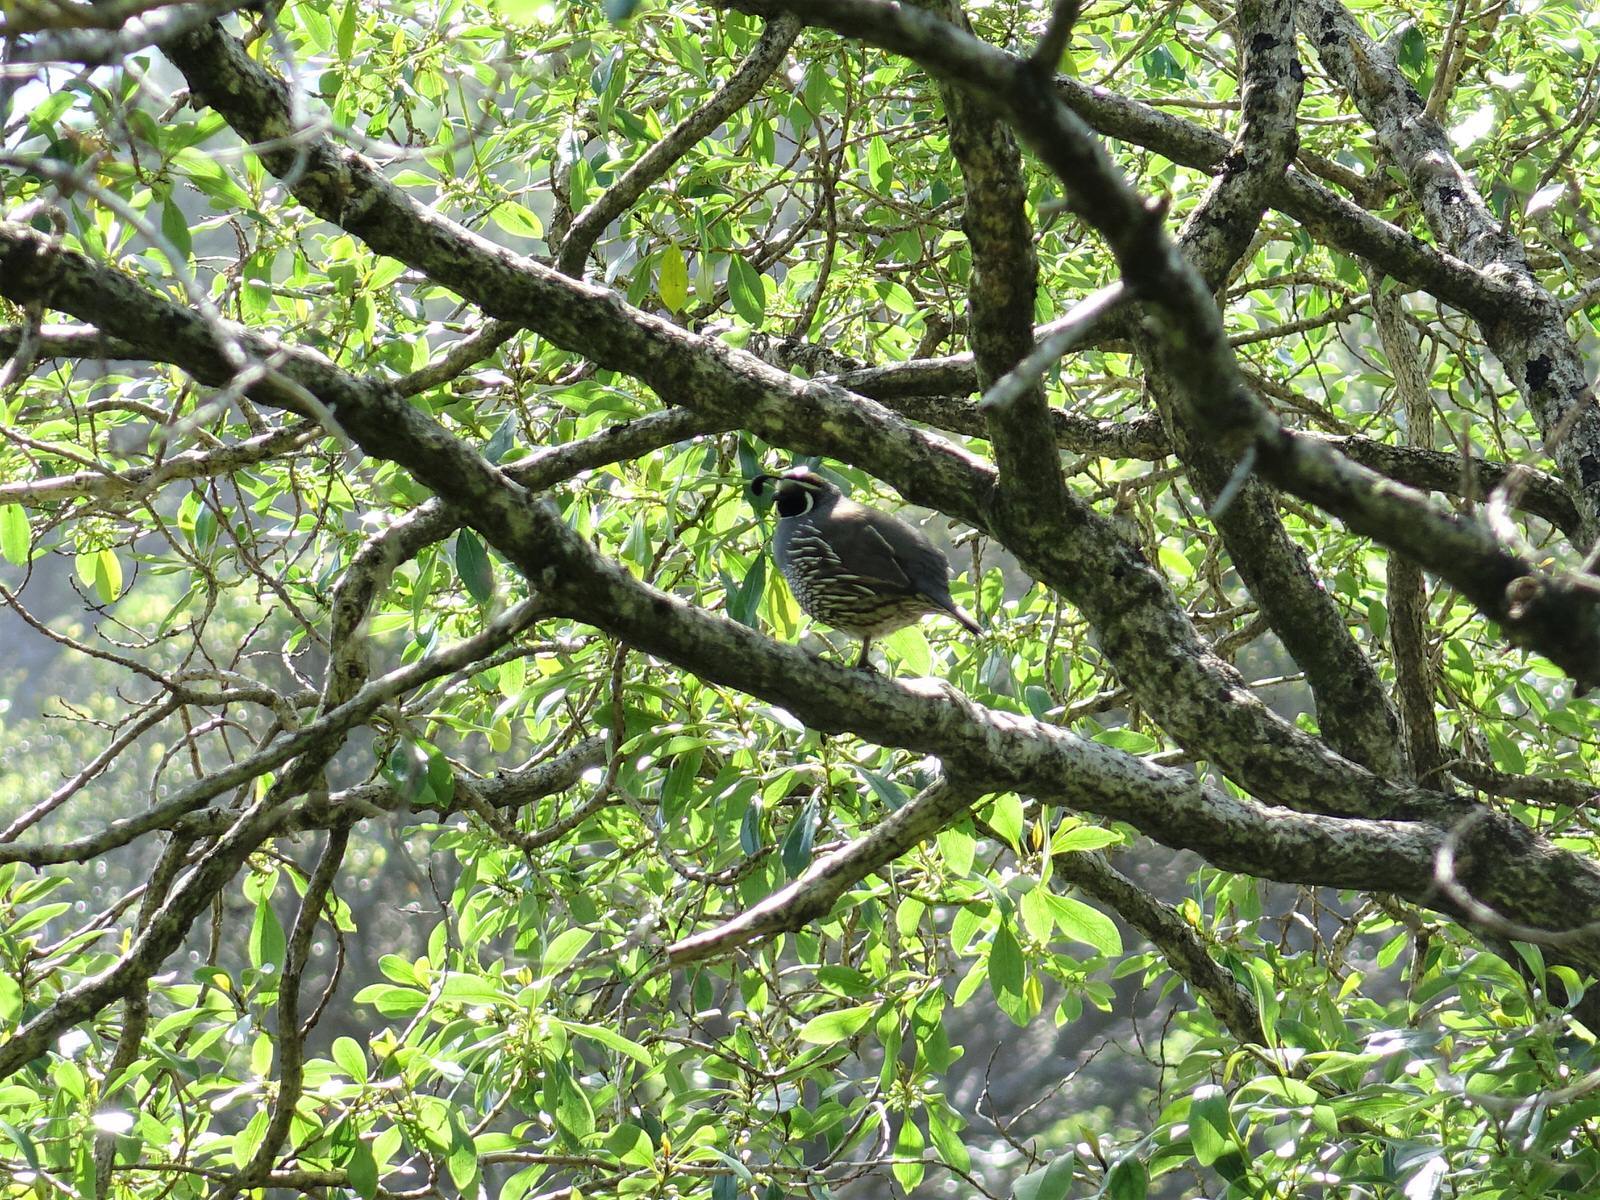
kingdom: Animalia
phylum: Chordata
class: Aves
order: Galliformes
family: Odontophoridae
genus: Callipepla
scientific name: Callipepla californica
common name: California quail
